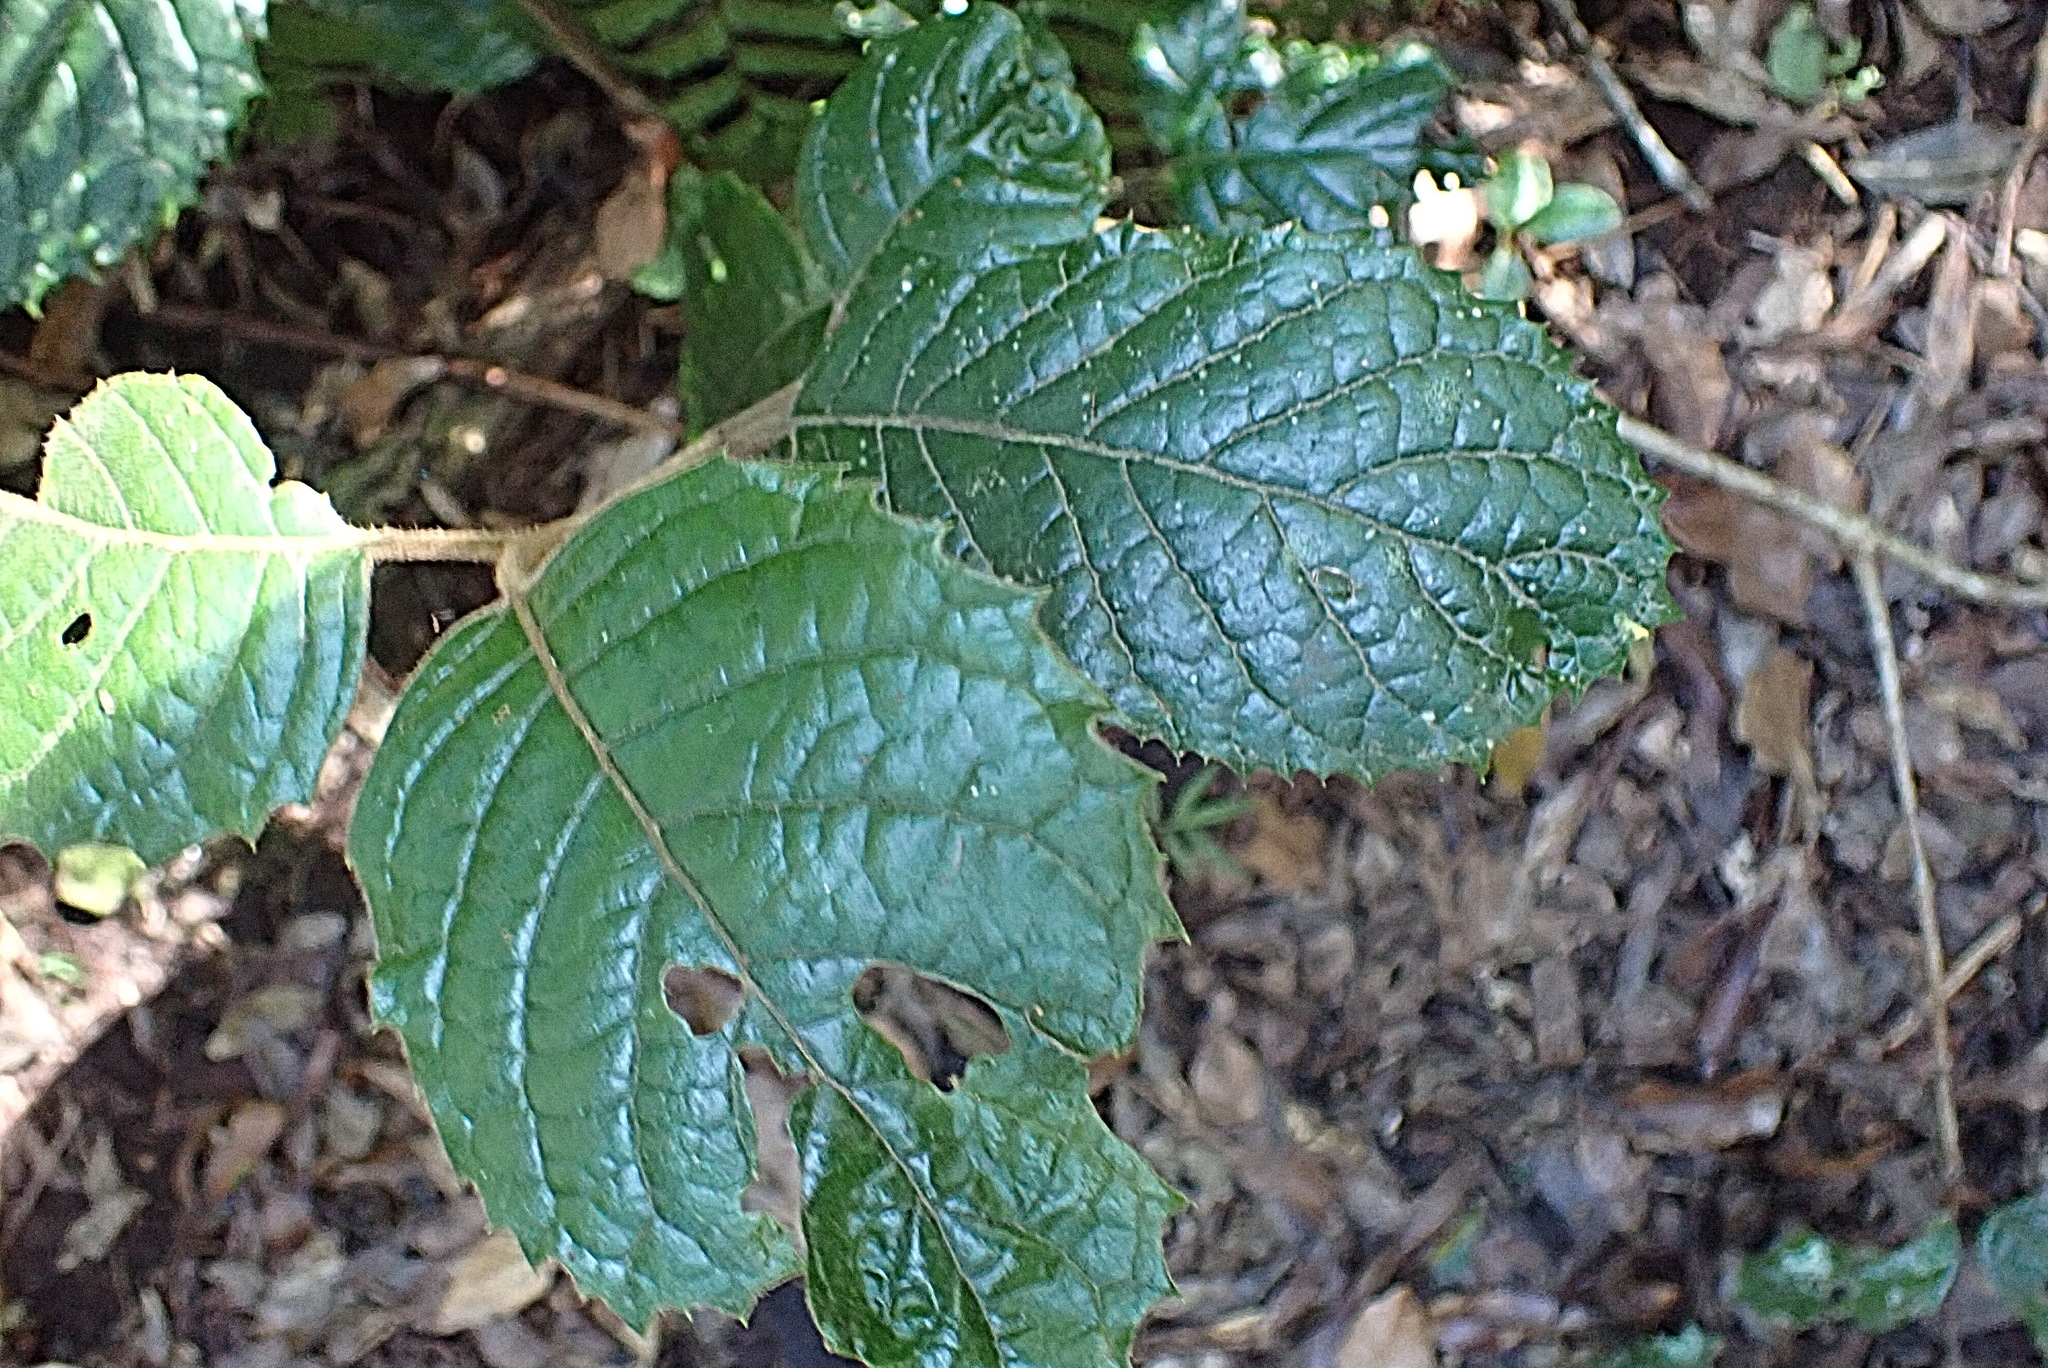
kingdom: Plantae
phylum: Tracheophyta
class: Magnoliopsida
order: Cornales
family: Curtisiaceae
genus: Curtisia
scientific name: Curtisia dentata
